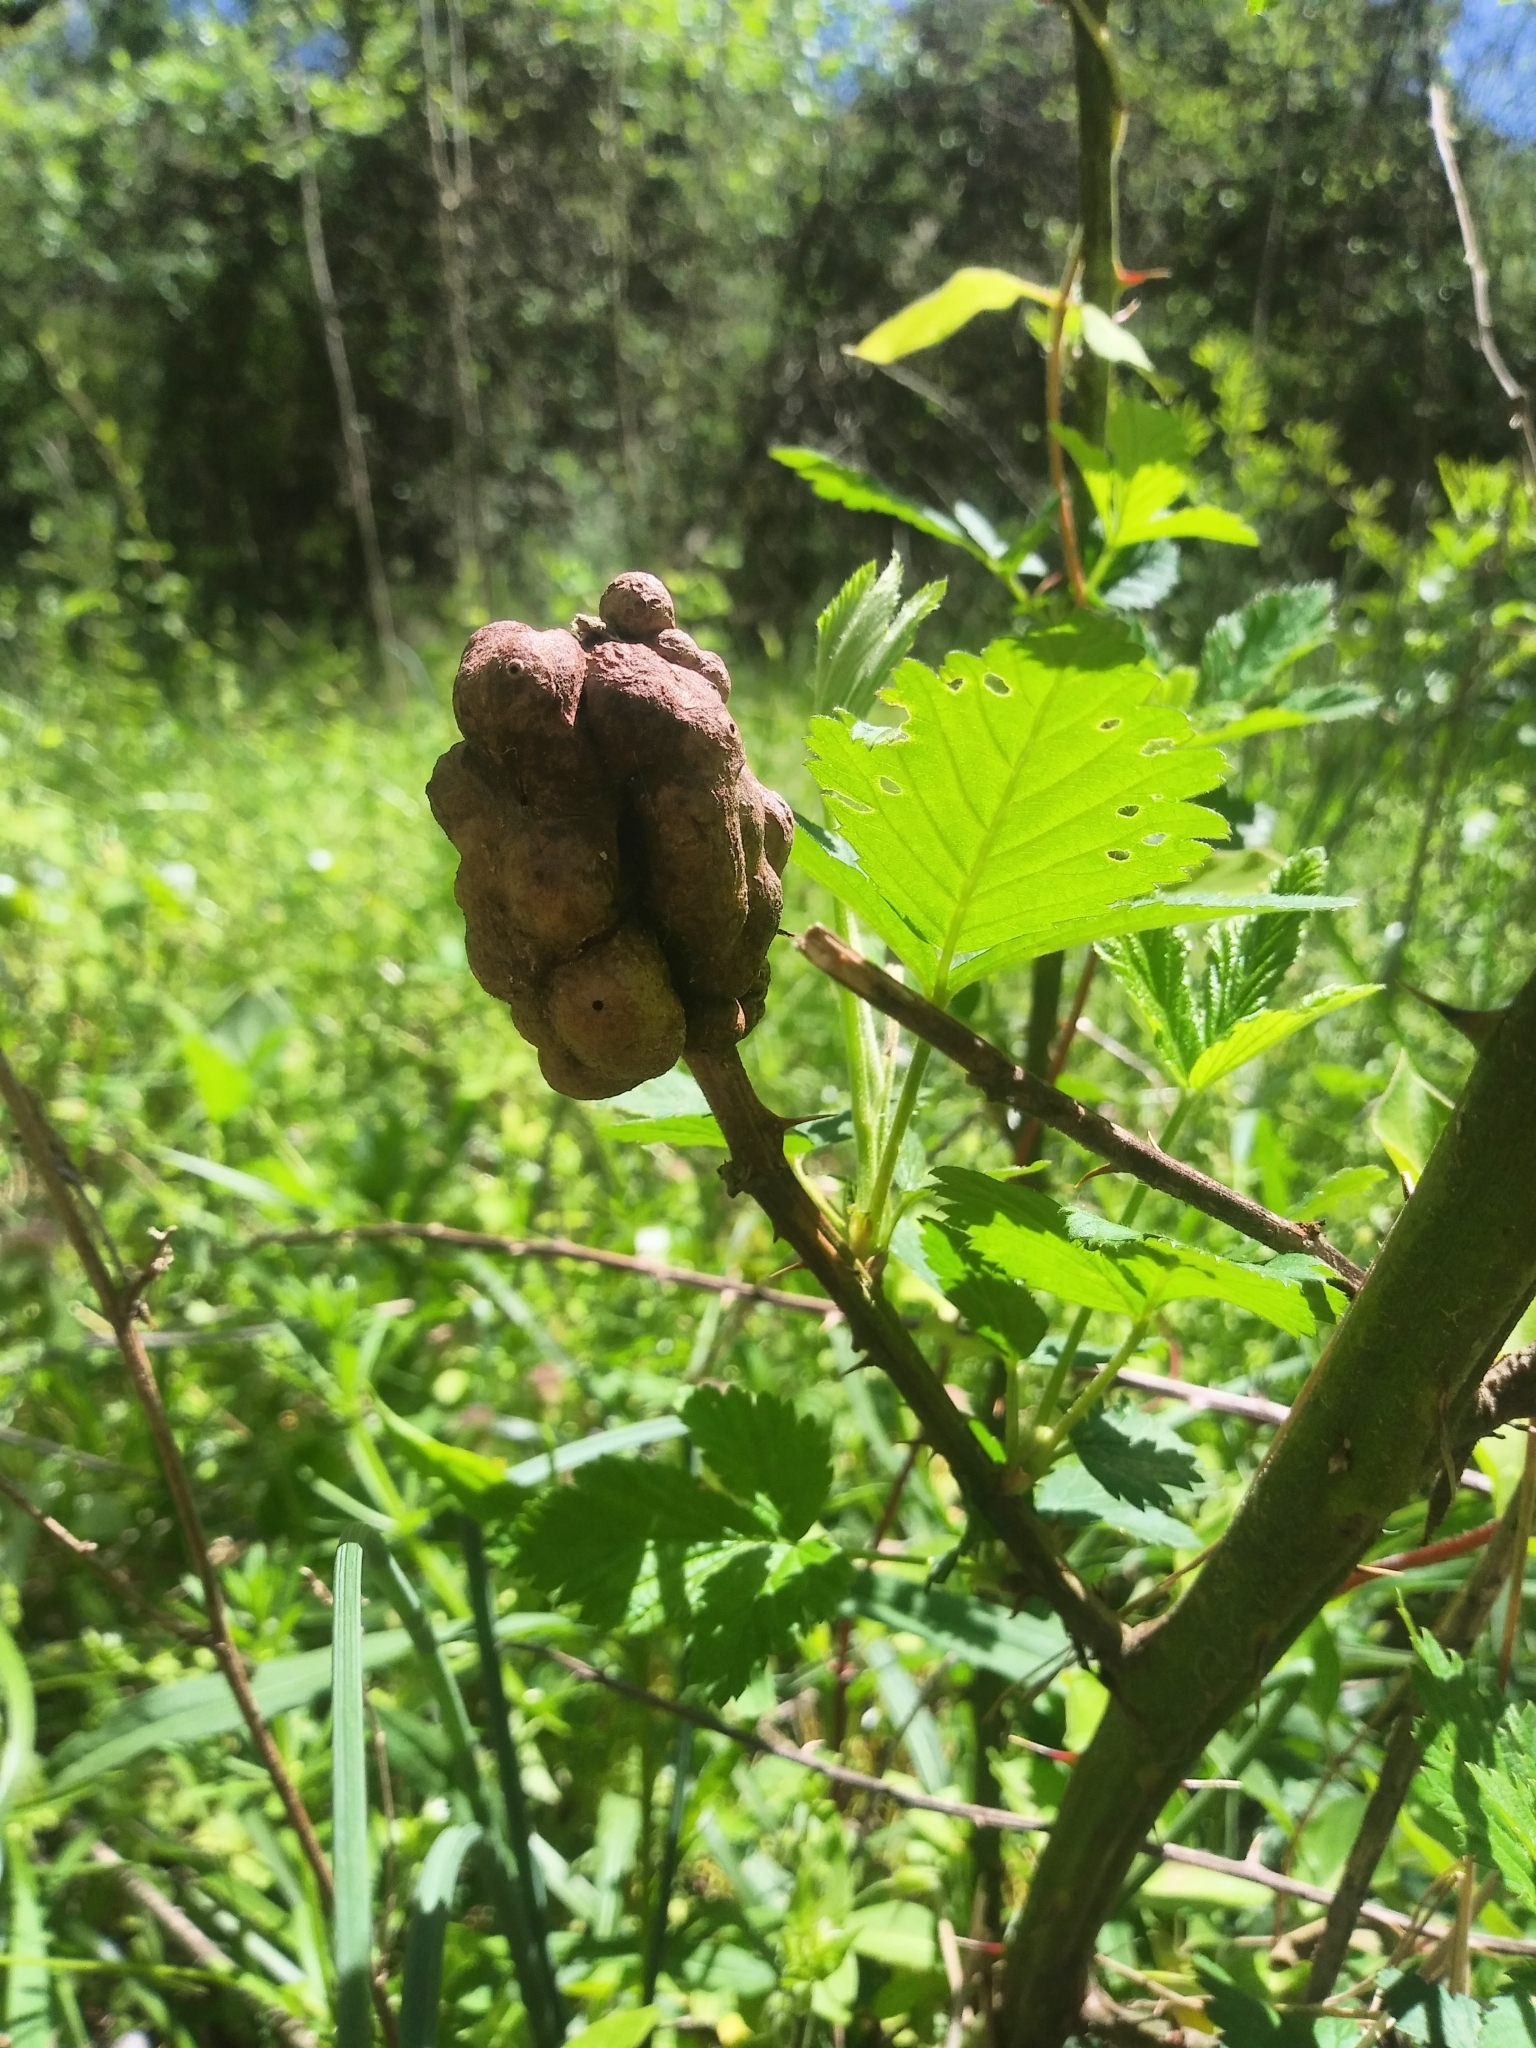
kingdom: Animalia
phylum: Arthropoda
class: Insecta
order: Hymenoptera
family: Cynipidae
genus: Diastrophus
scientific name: Diastrophus
